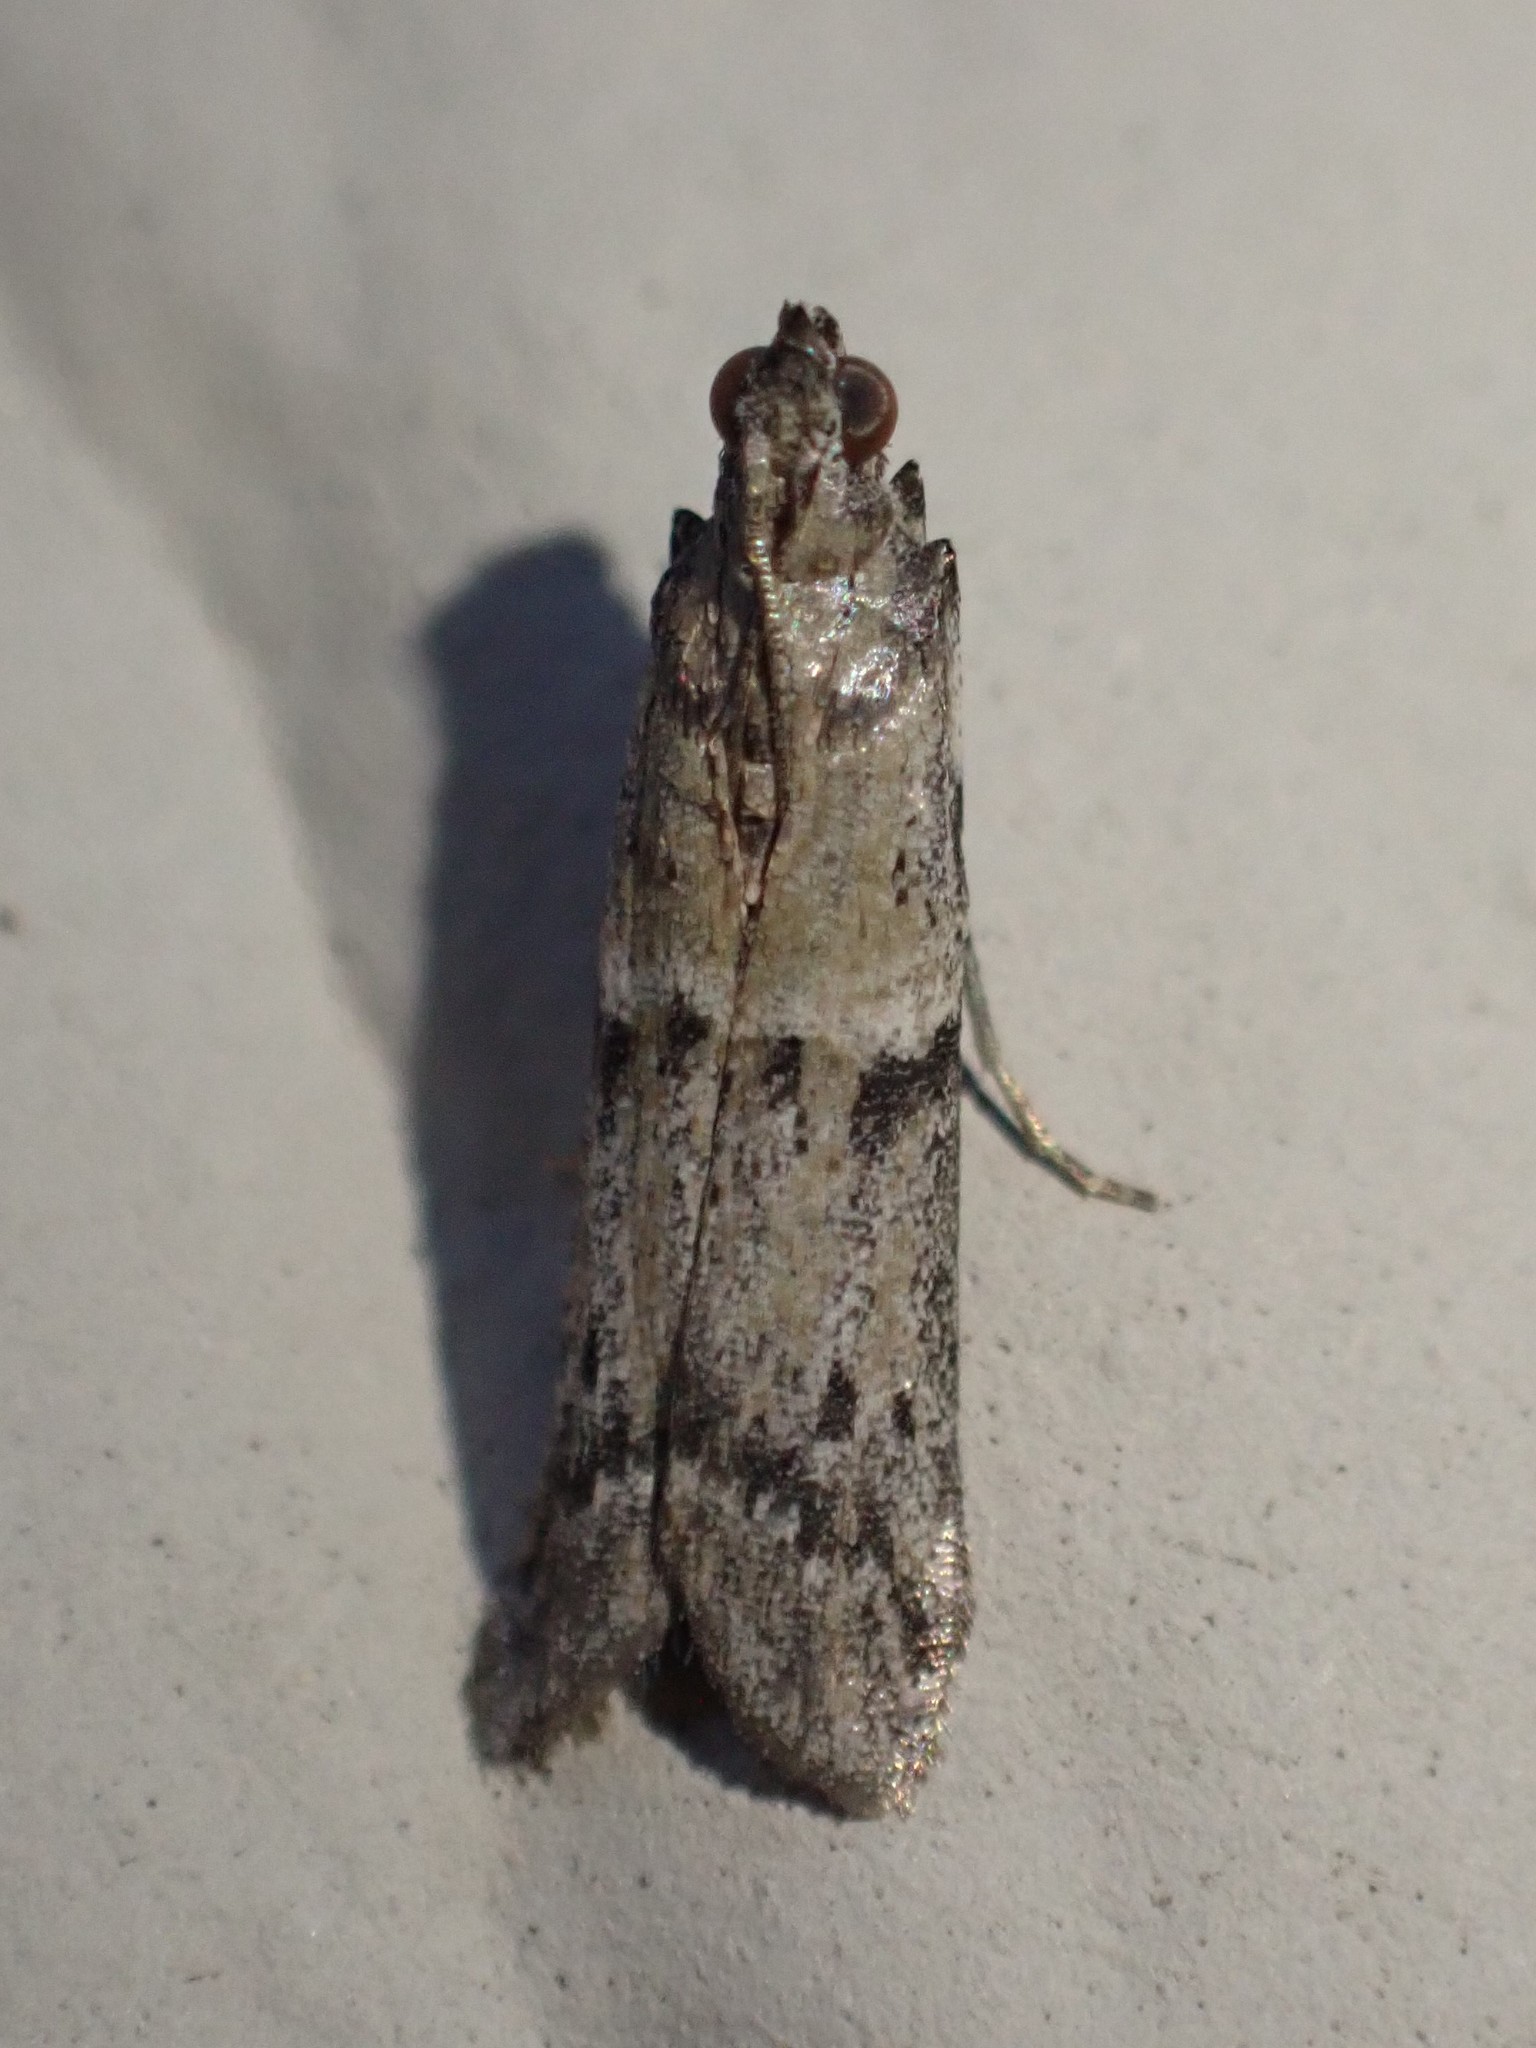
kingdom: Animalia
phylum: Arthropoda
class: Insecta
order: Lepidoptera
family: Pyralidae
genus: Ephestiodes
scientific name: Ephestiodes gilvescentella
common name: Moth
